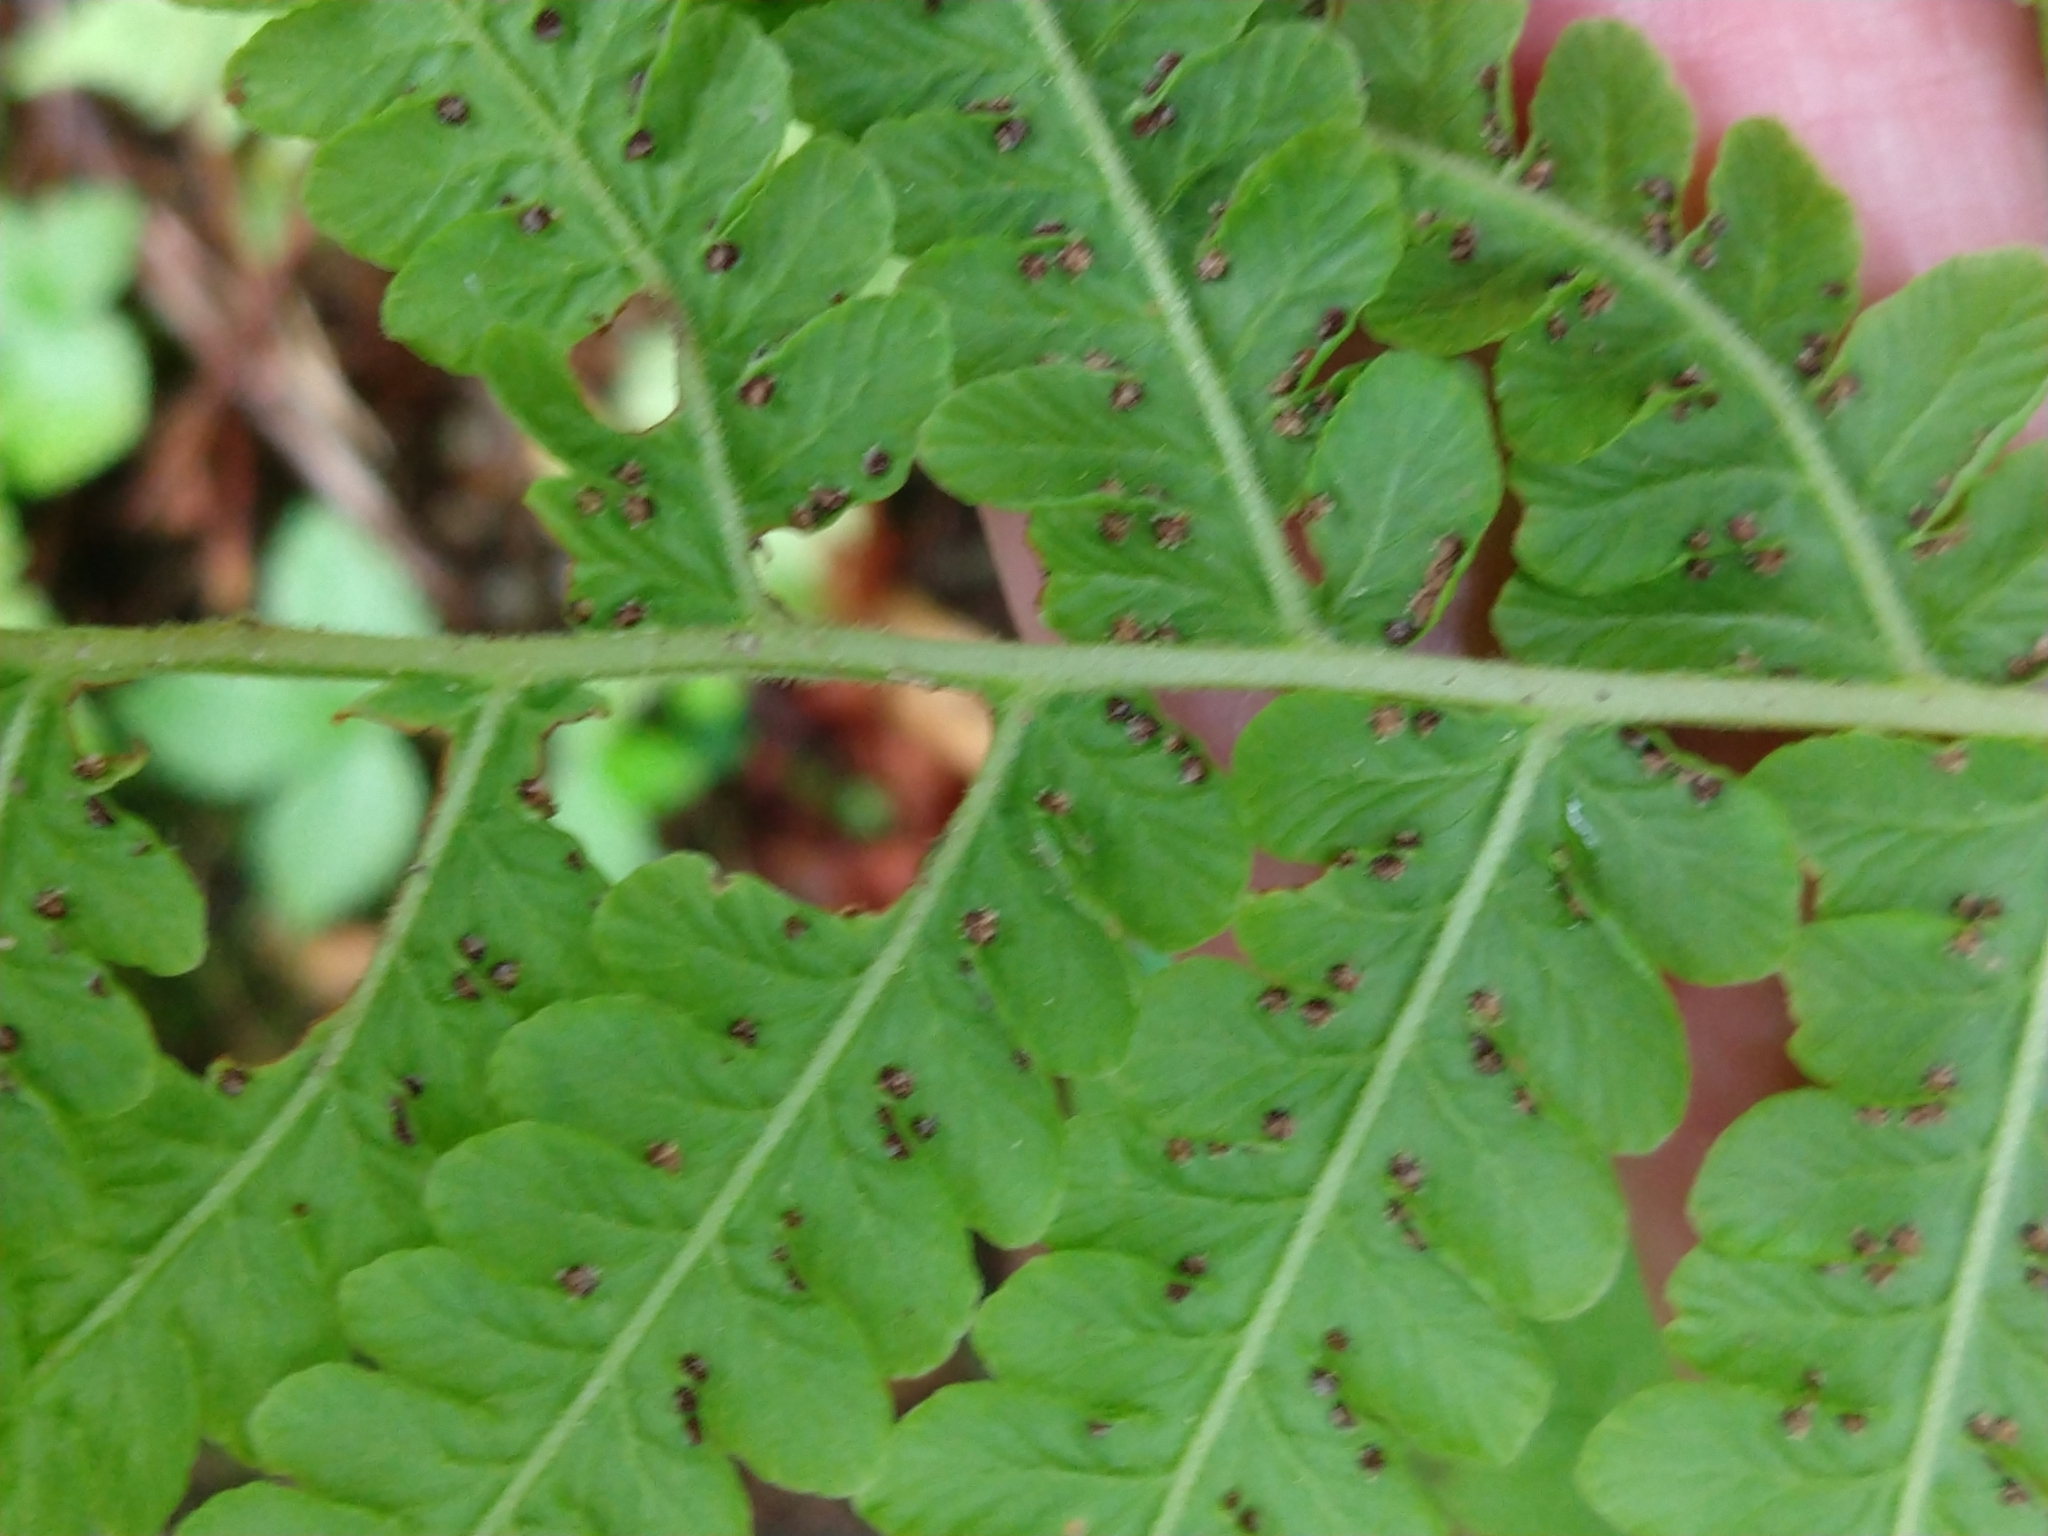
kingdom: Plantae
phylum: Tracheophyta
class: Polypodiopsida
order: Polypodiales
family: Thelypteridaceae
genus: Oreopteris
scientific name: Oreopteris limbosperma
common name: Lemon-scented fern
